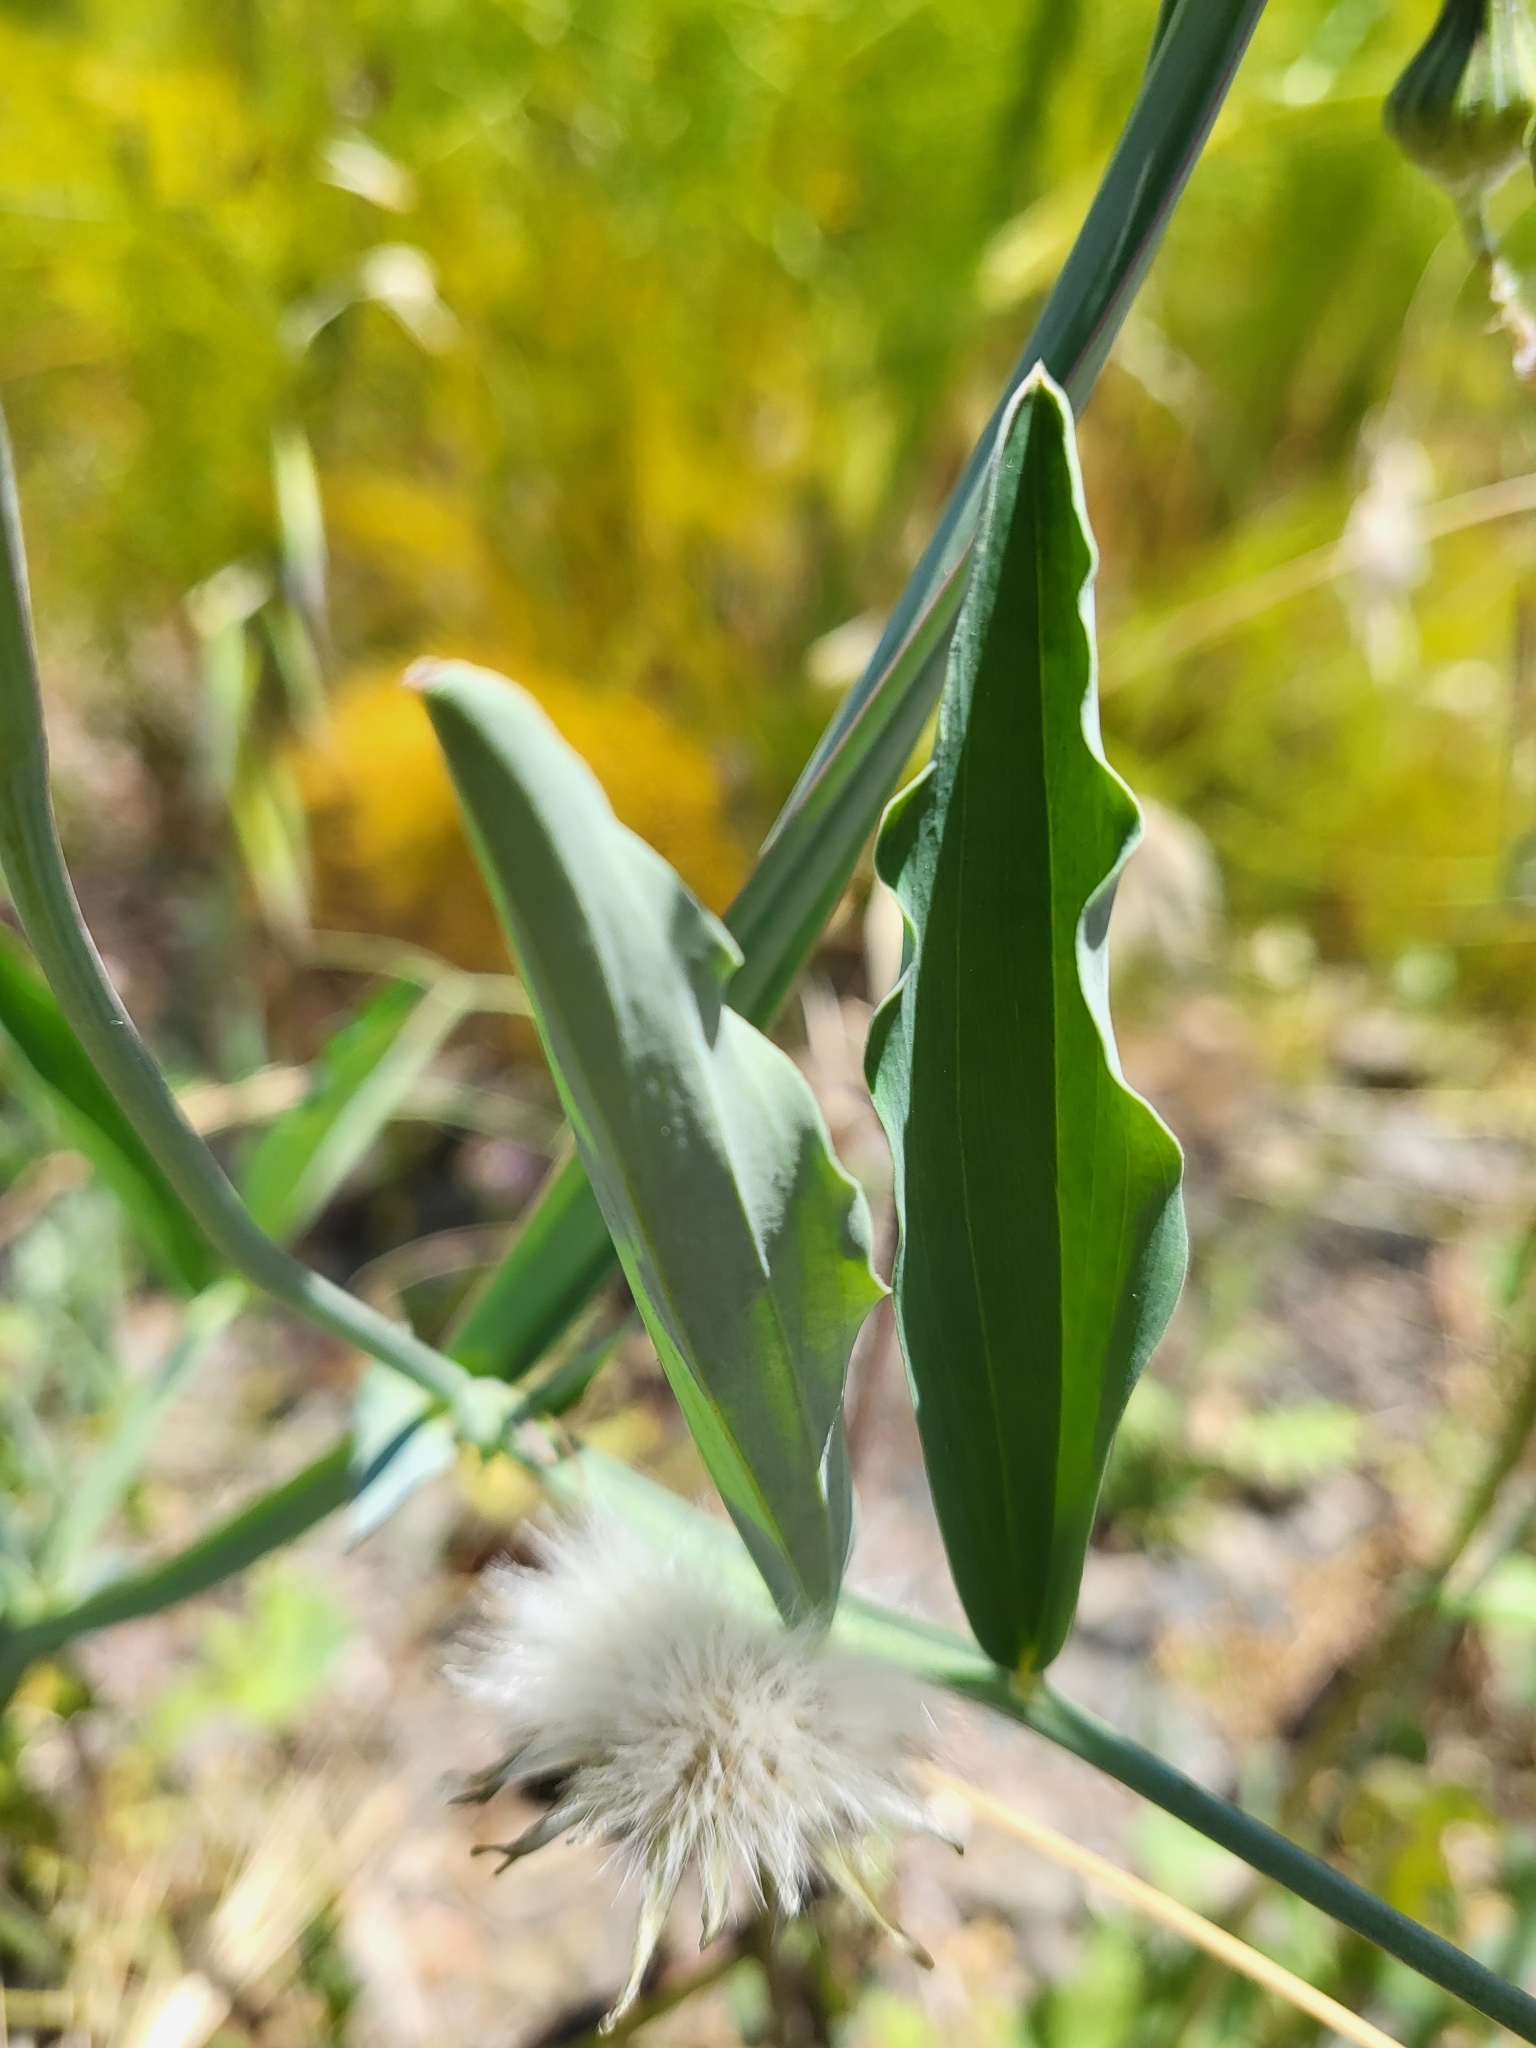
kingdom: Plantae
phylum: Tracheophyta
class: Magnoliopsida
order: Fabales
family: Fabaceae
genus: Lathyrus
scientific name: Lathyrus tingitanus
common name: Tangier pea
